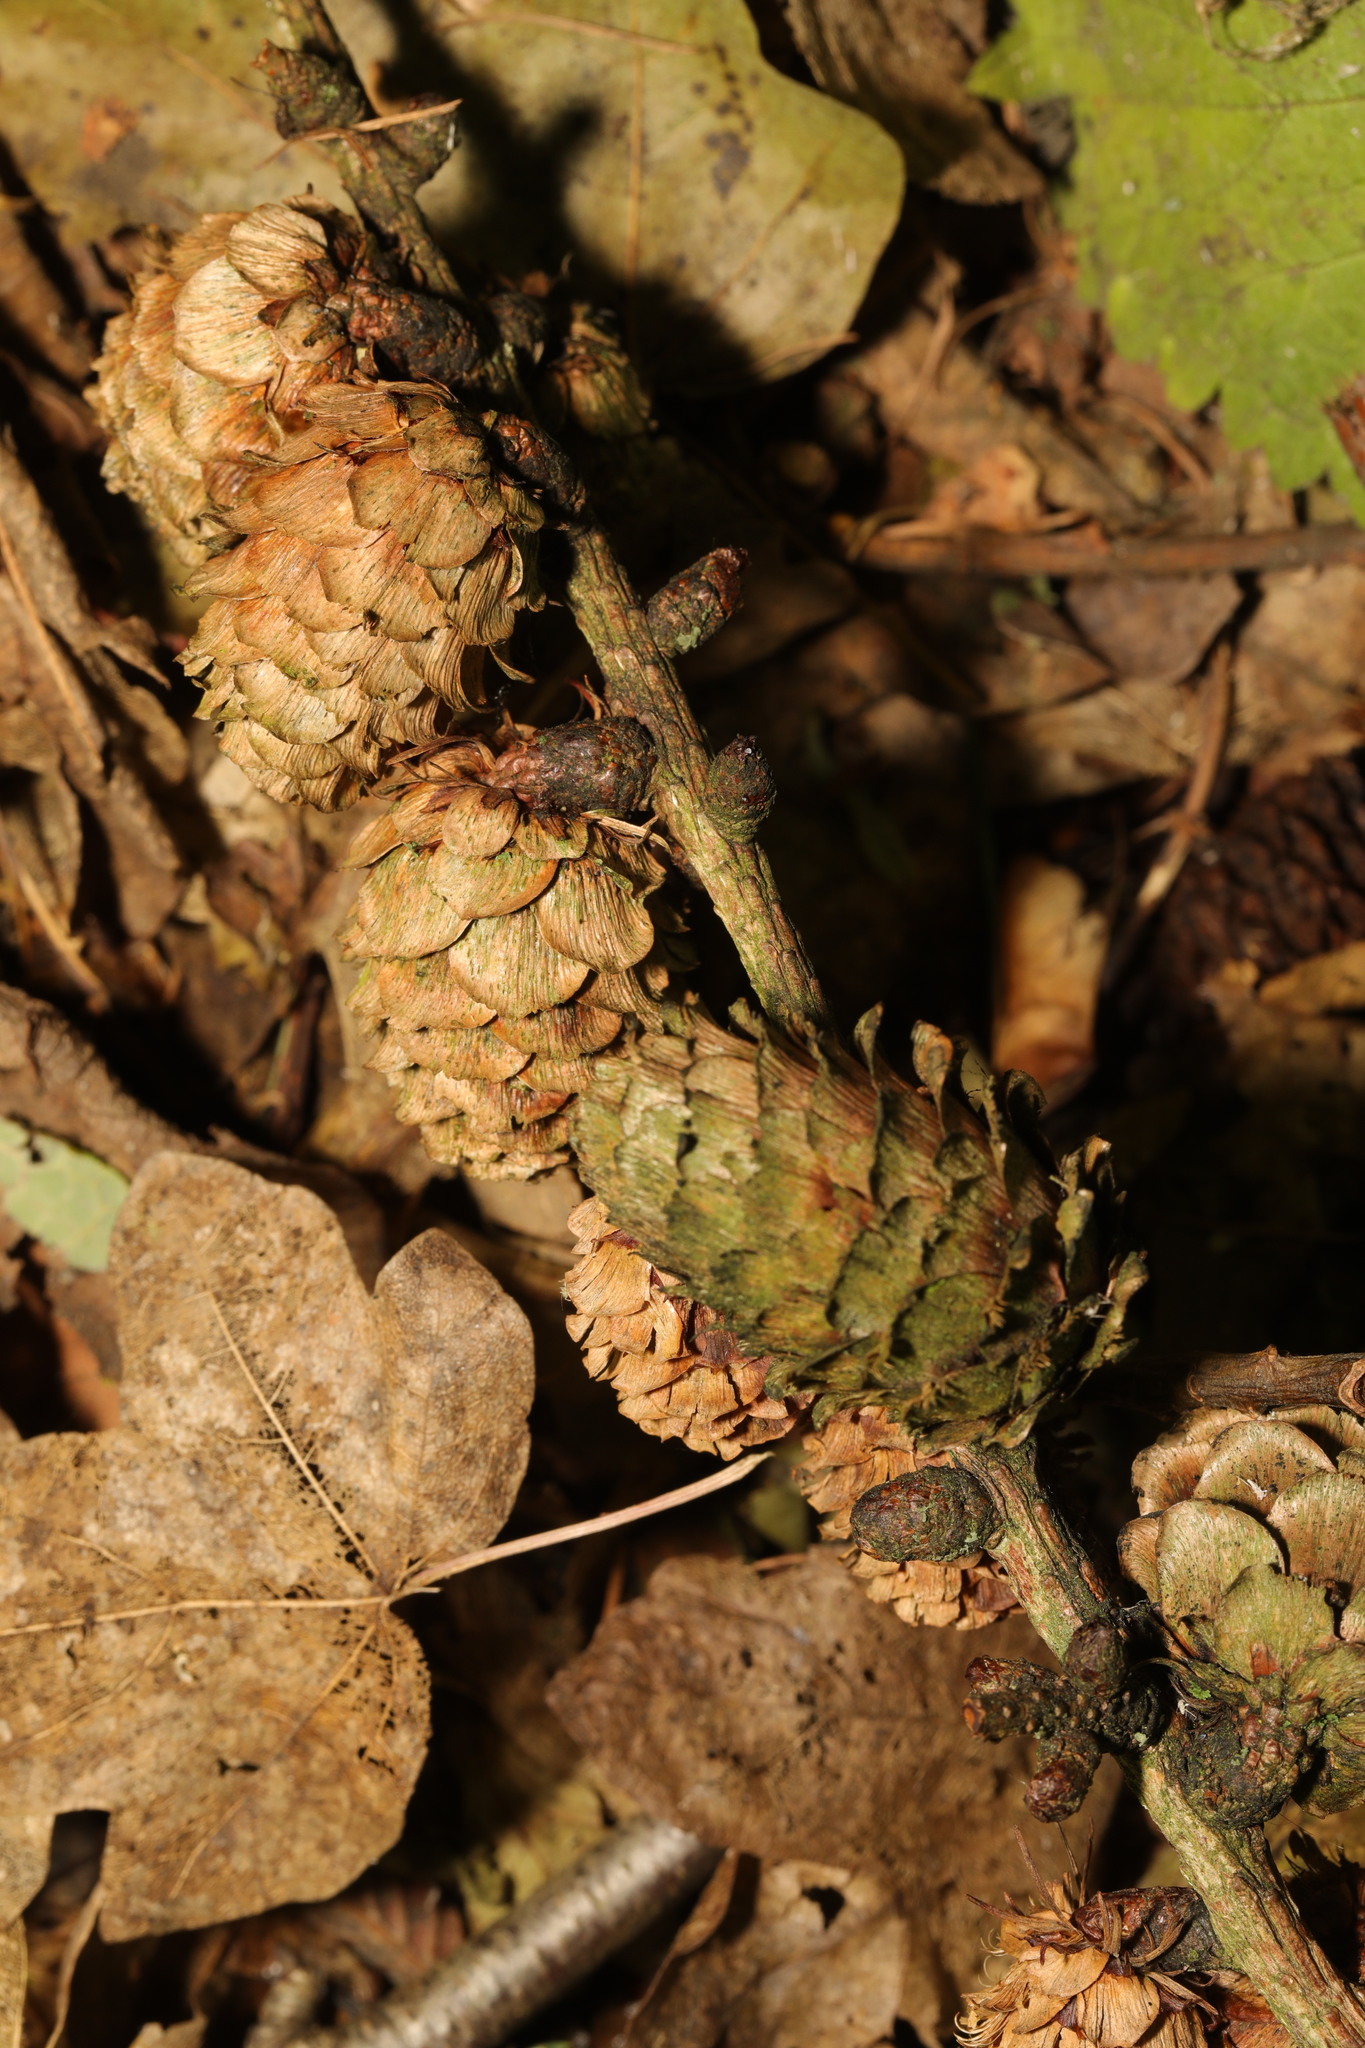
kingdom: Plantae
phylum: Tracheophyta
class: Pinopsida
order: Pinales
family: Pinaceae
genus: Larix
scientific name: Larix decidua
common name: European larch
